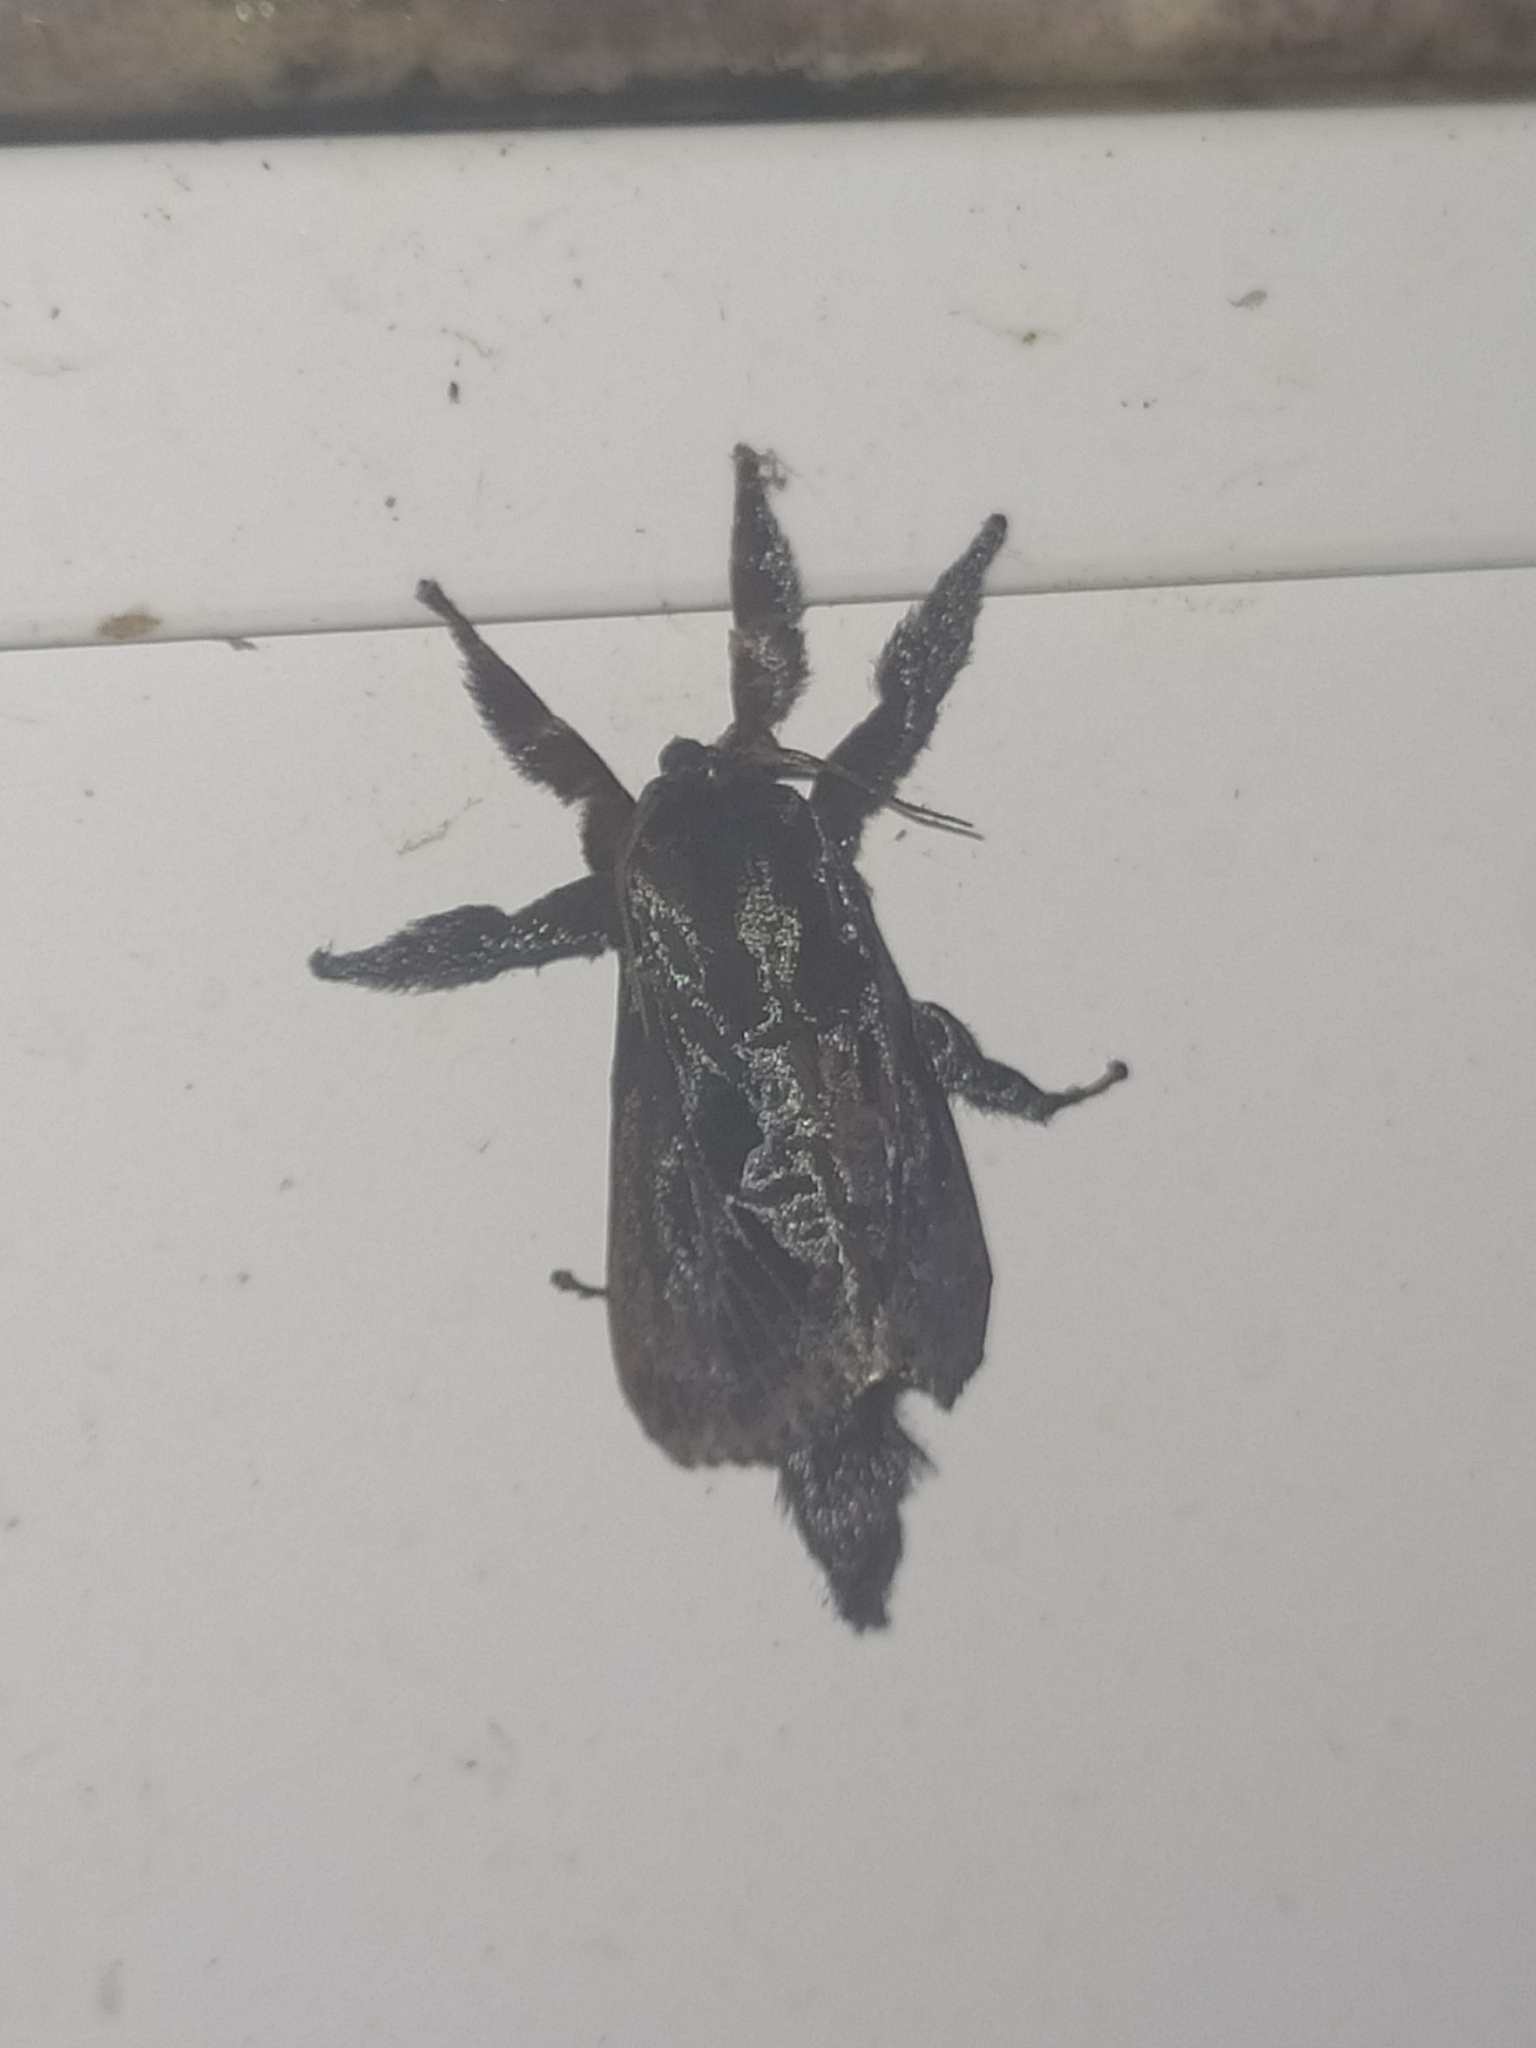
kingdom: Animalia
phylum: Arthropoda
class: Insecta
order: Lepidoptera
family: Limacodidae
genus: Sibine
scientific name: Sibine nesea
